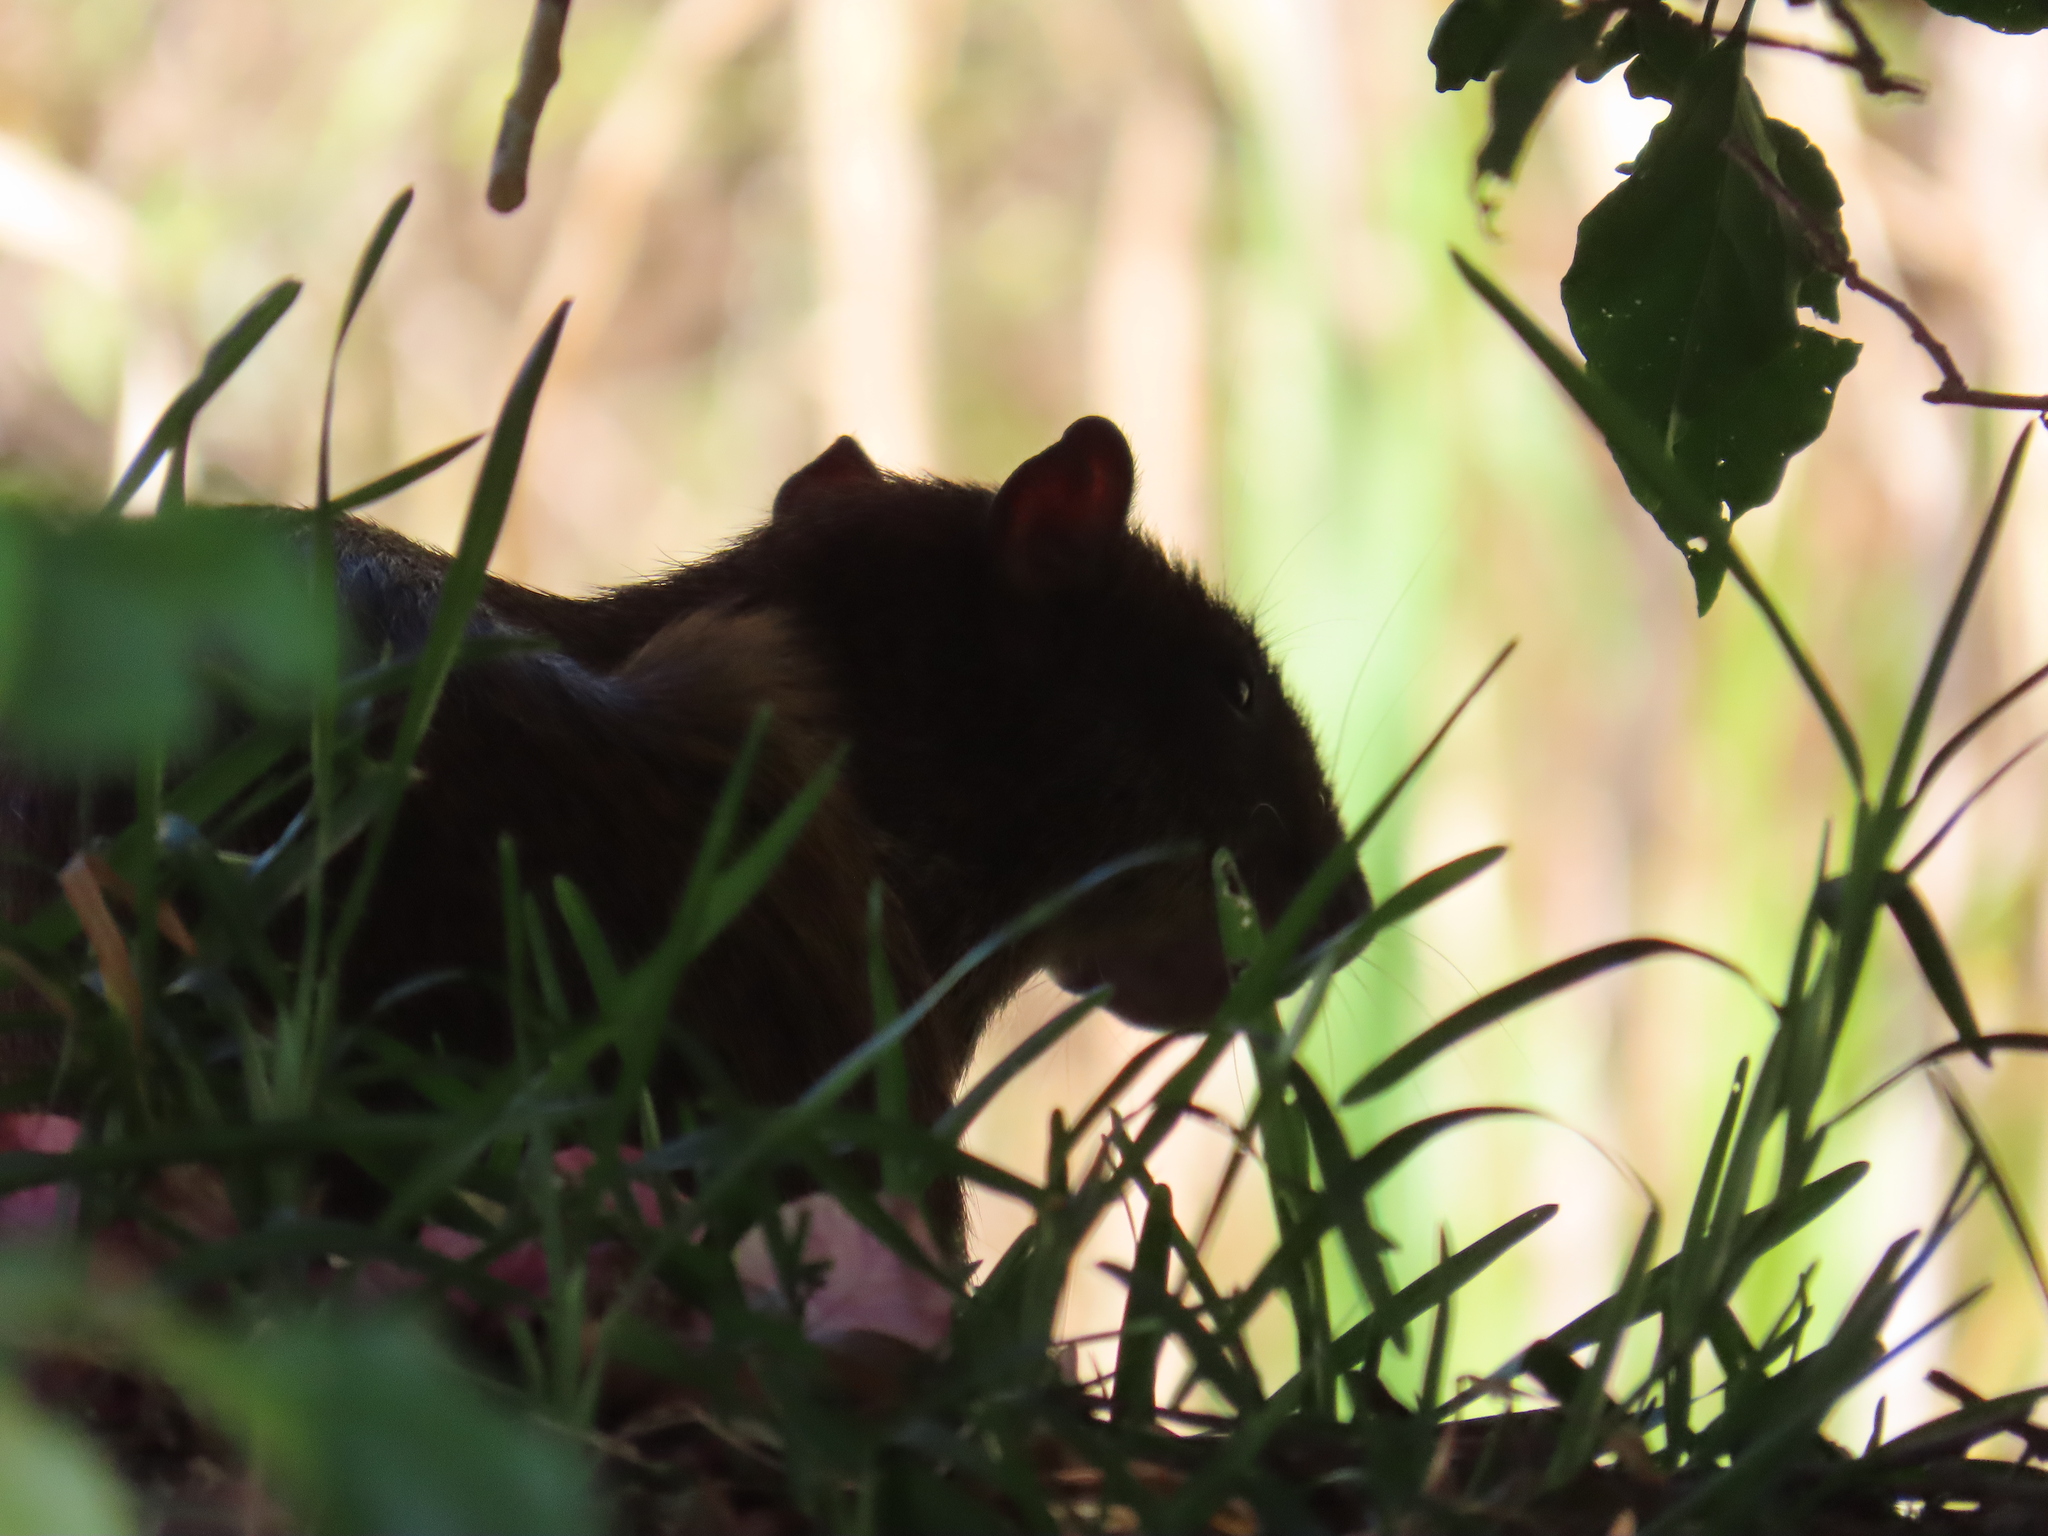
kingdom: Animalia
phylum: Chordata
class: Mammalia
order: Rodentia
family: Dasyproctidae
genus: Dasyprocta
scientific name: Dasyprocta punctata
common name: Central american agouti
